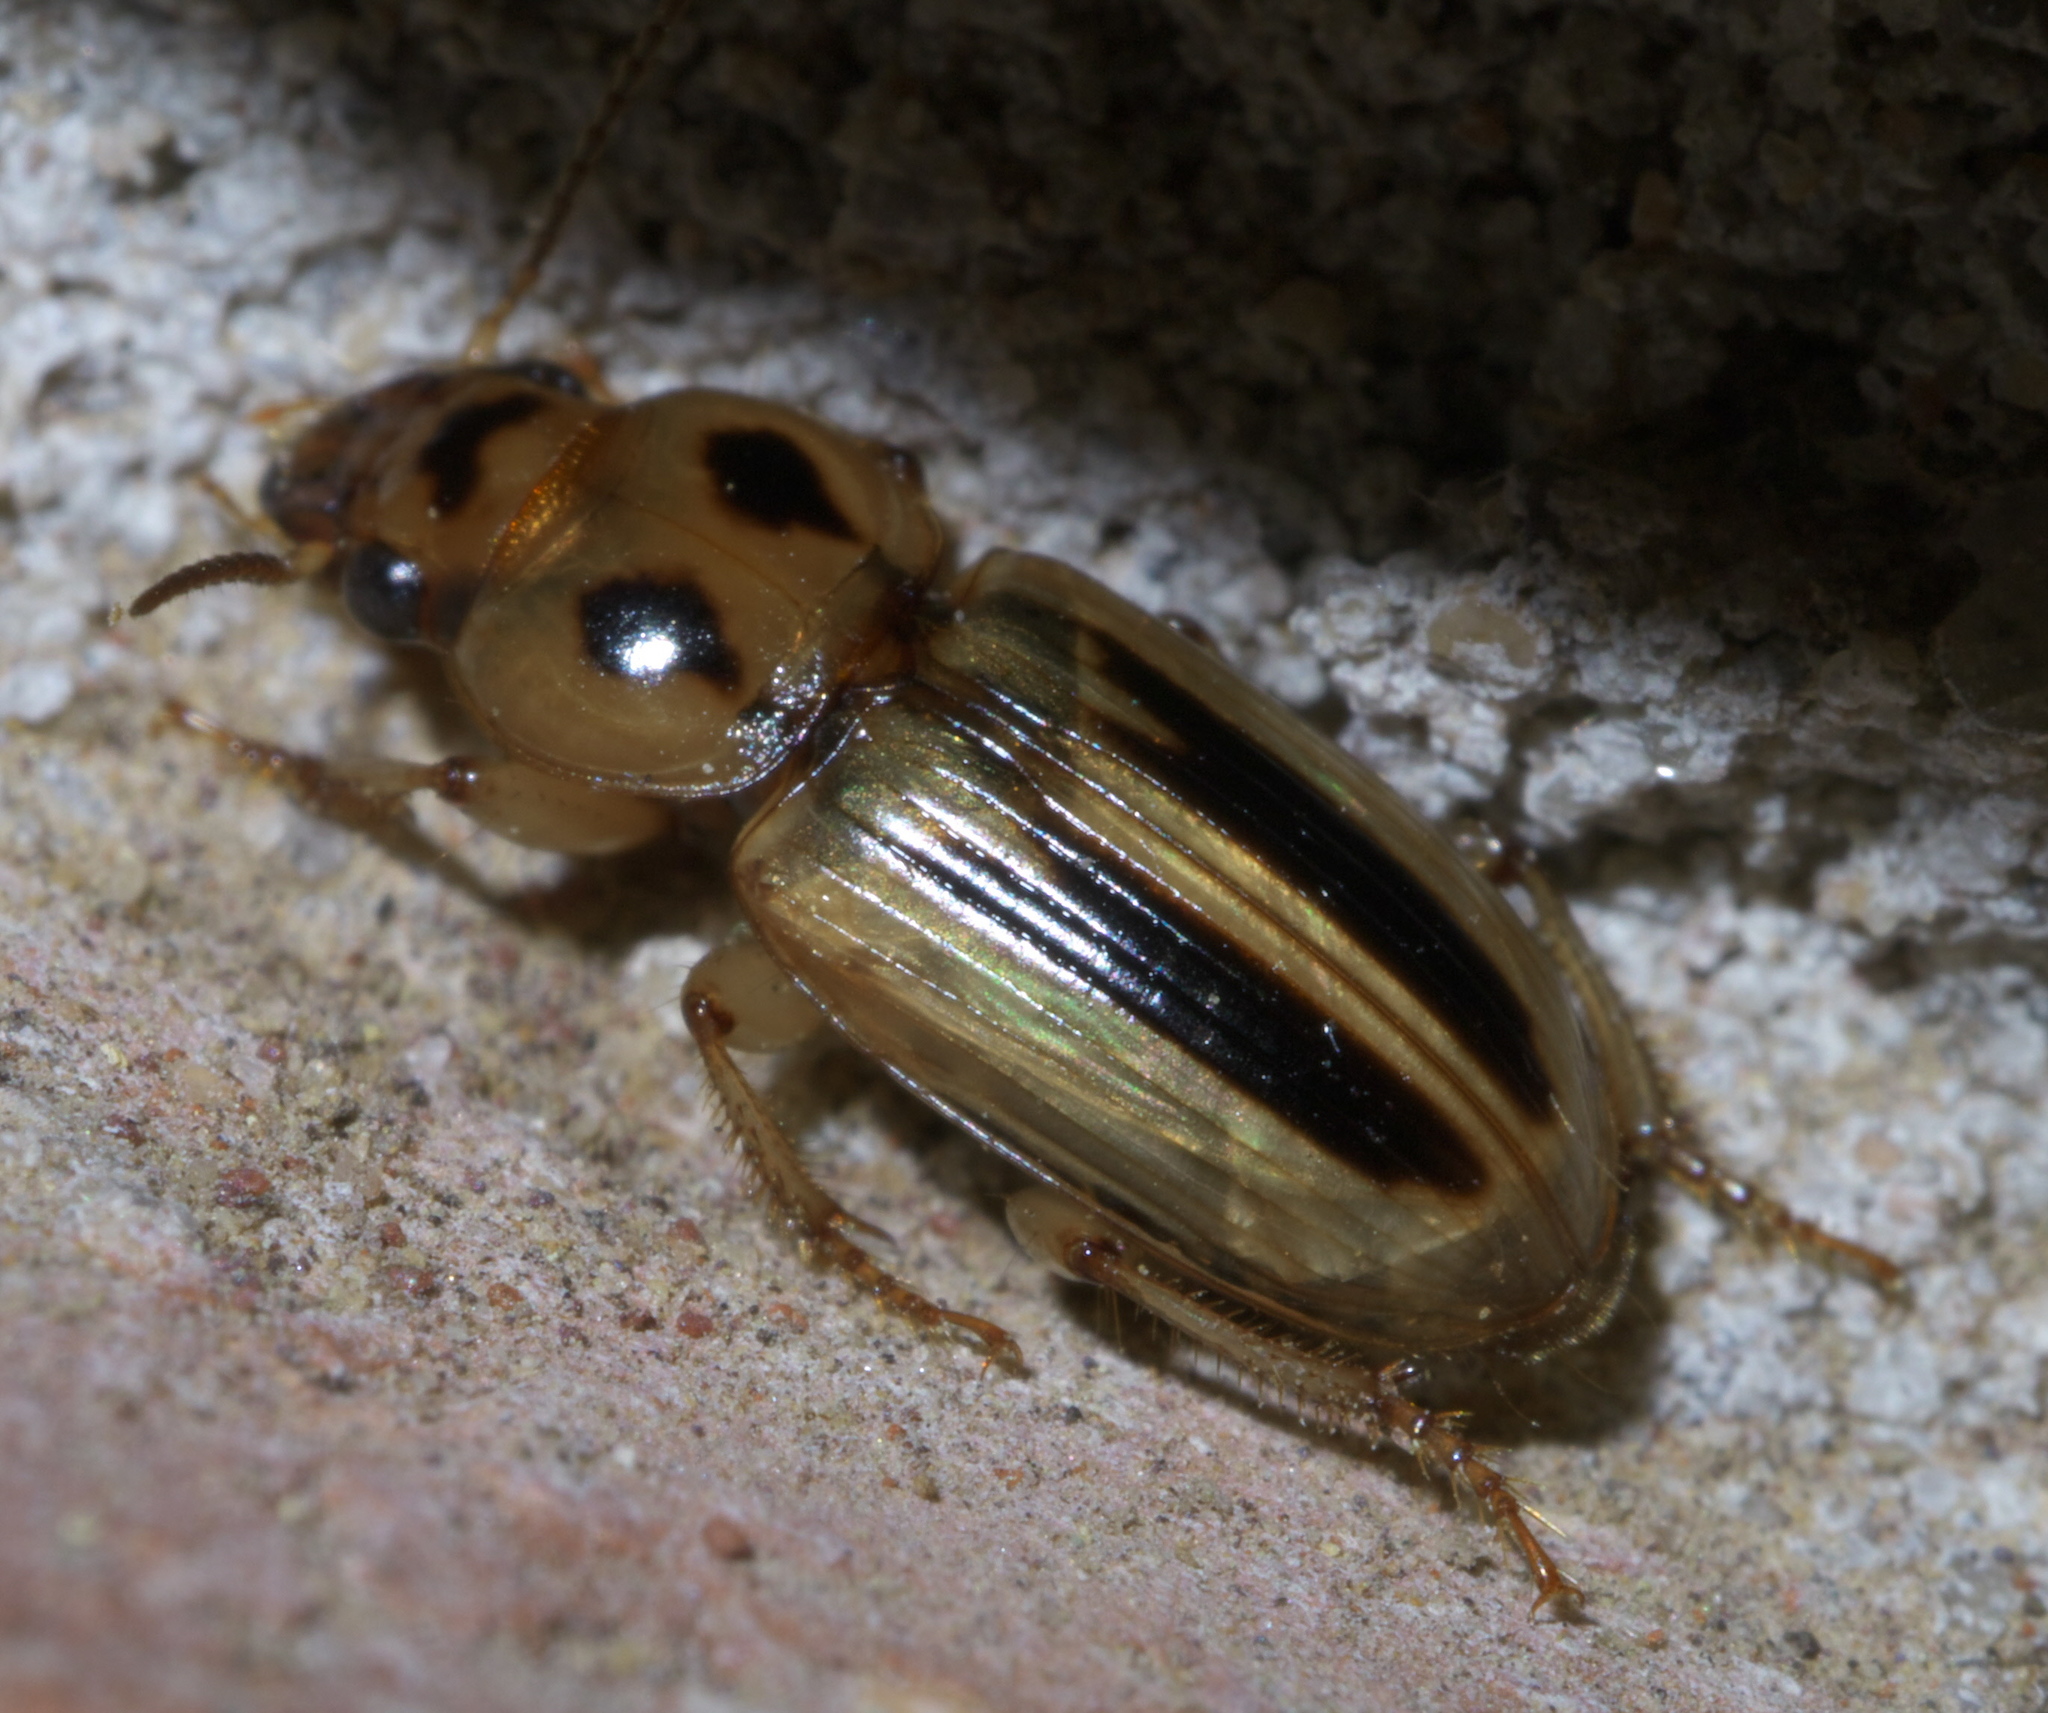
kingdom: Animalia
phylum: Arthropoda
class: Insecta
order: Coleoptera
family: Carabidae
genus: Stenolophus
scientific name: Stenolophus lineola
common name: Lined stenolophus
